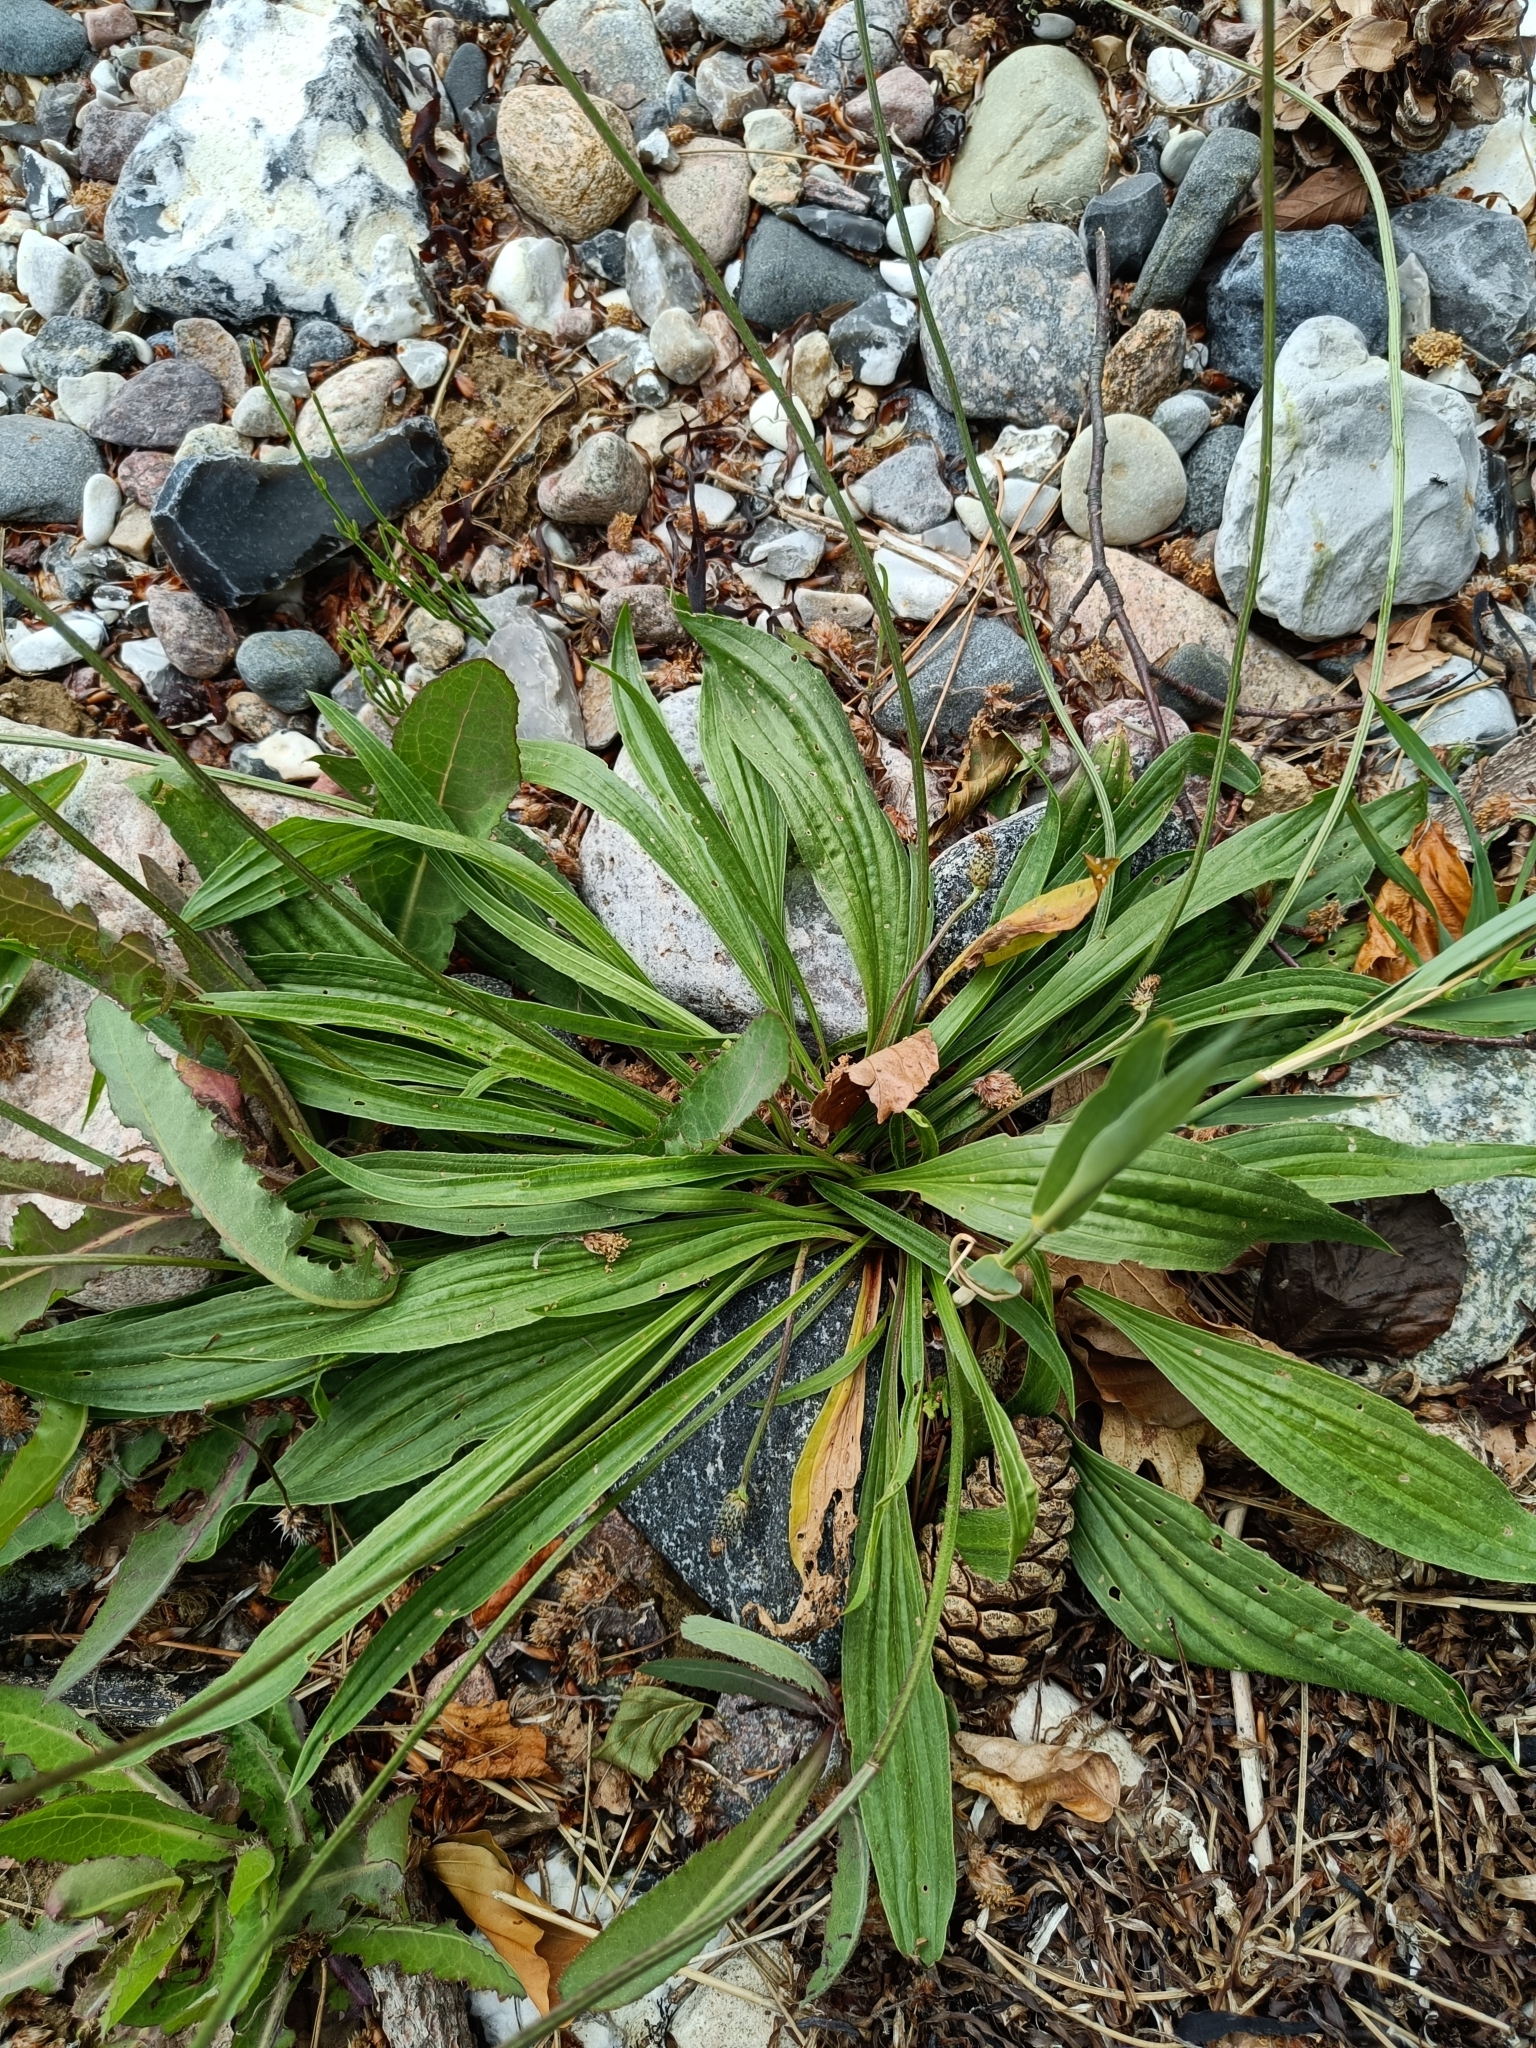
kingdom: Plantae
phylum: Tracheophyta
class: Magnoliopsida
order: Lamiales
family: Plantaginaceae
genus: Plantago
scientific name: Plantago lanceolata
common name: Ribwort plantain
